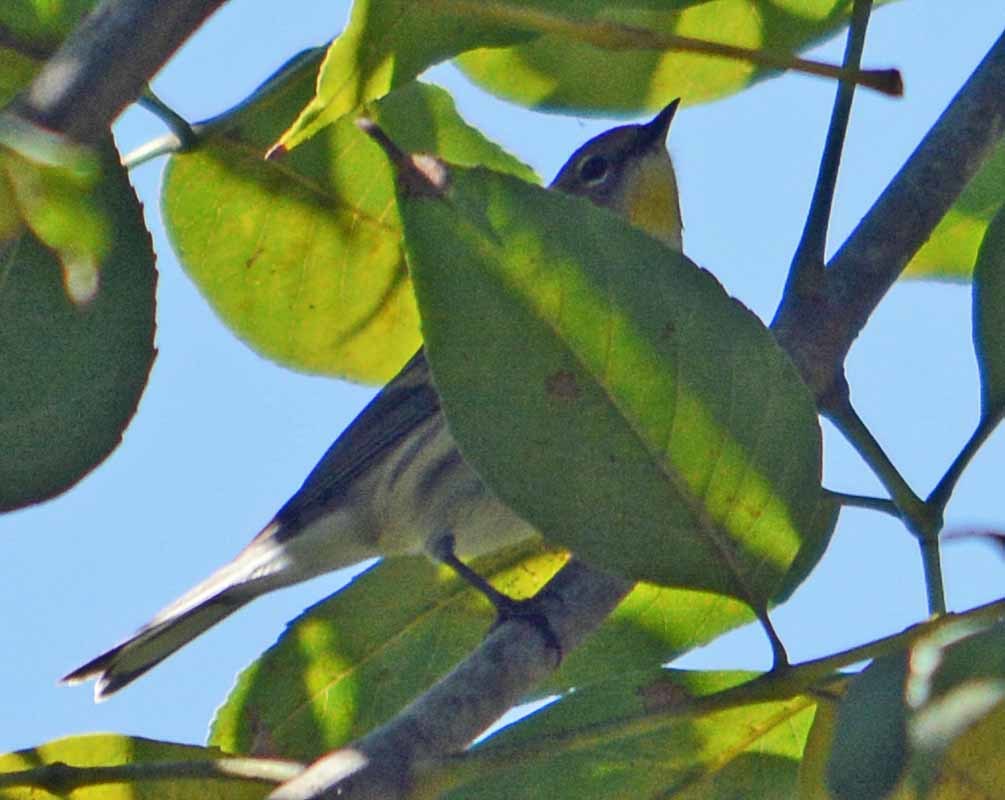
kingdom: Animalia
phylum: Chordata
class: Aves
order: Passeriformes
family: Parulidae
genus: Setophaga
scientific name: Setophaga coronata
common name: Myrtle warbler
